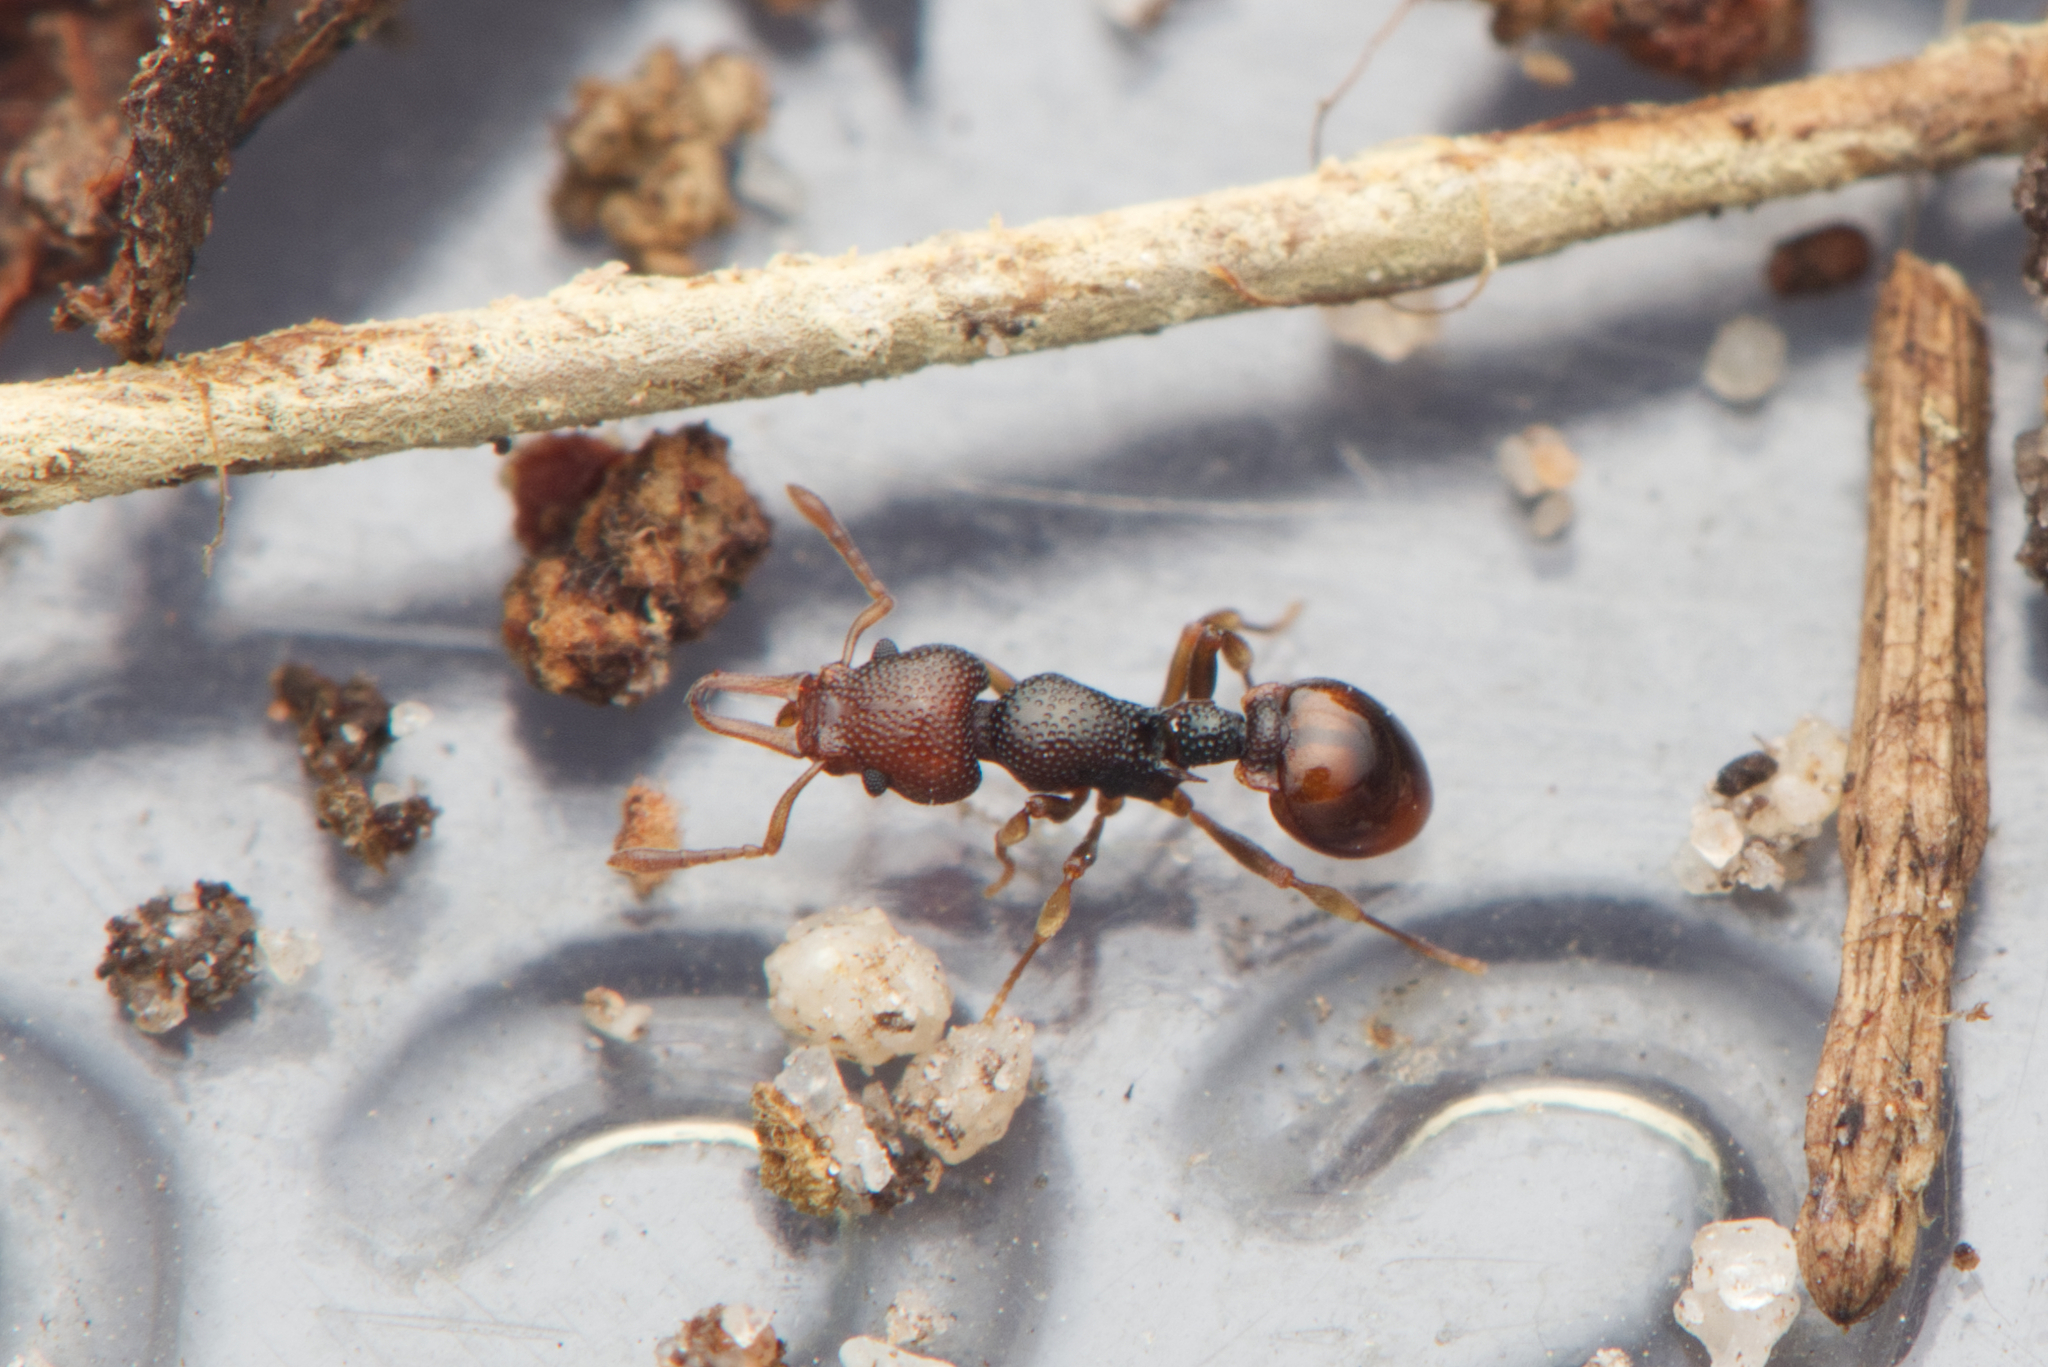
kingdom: Animalia
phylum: Arthropoda
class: Insecta
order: Hymenoptera
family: Formicidae
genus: Epopostruma
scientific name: Epopostruma
